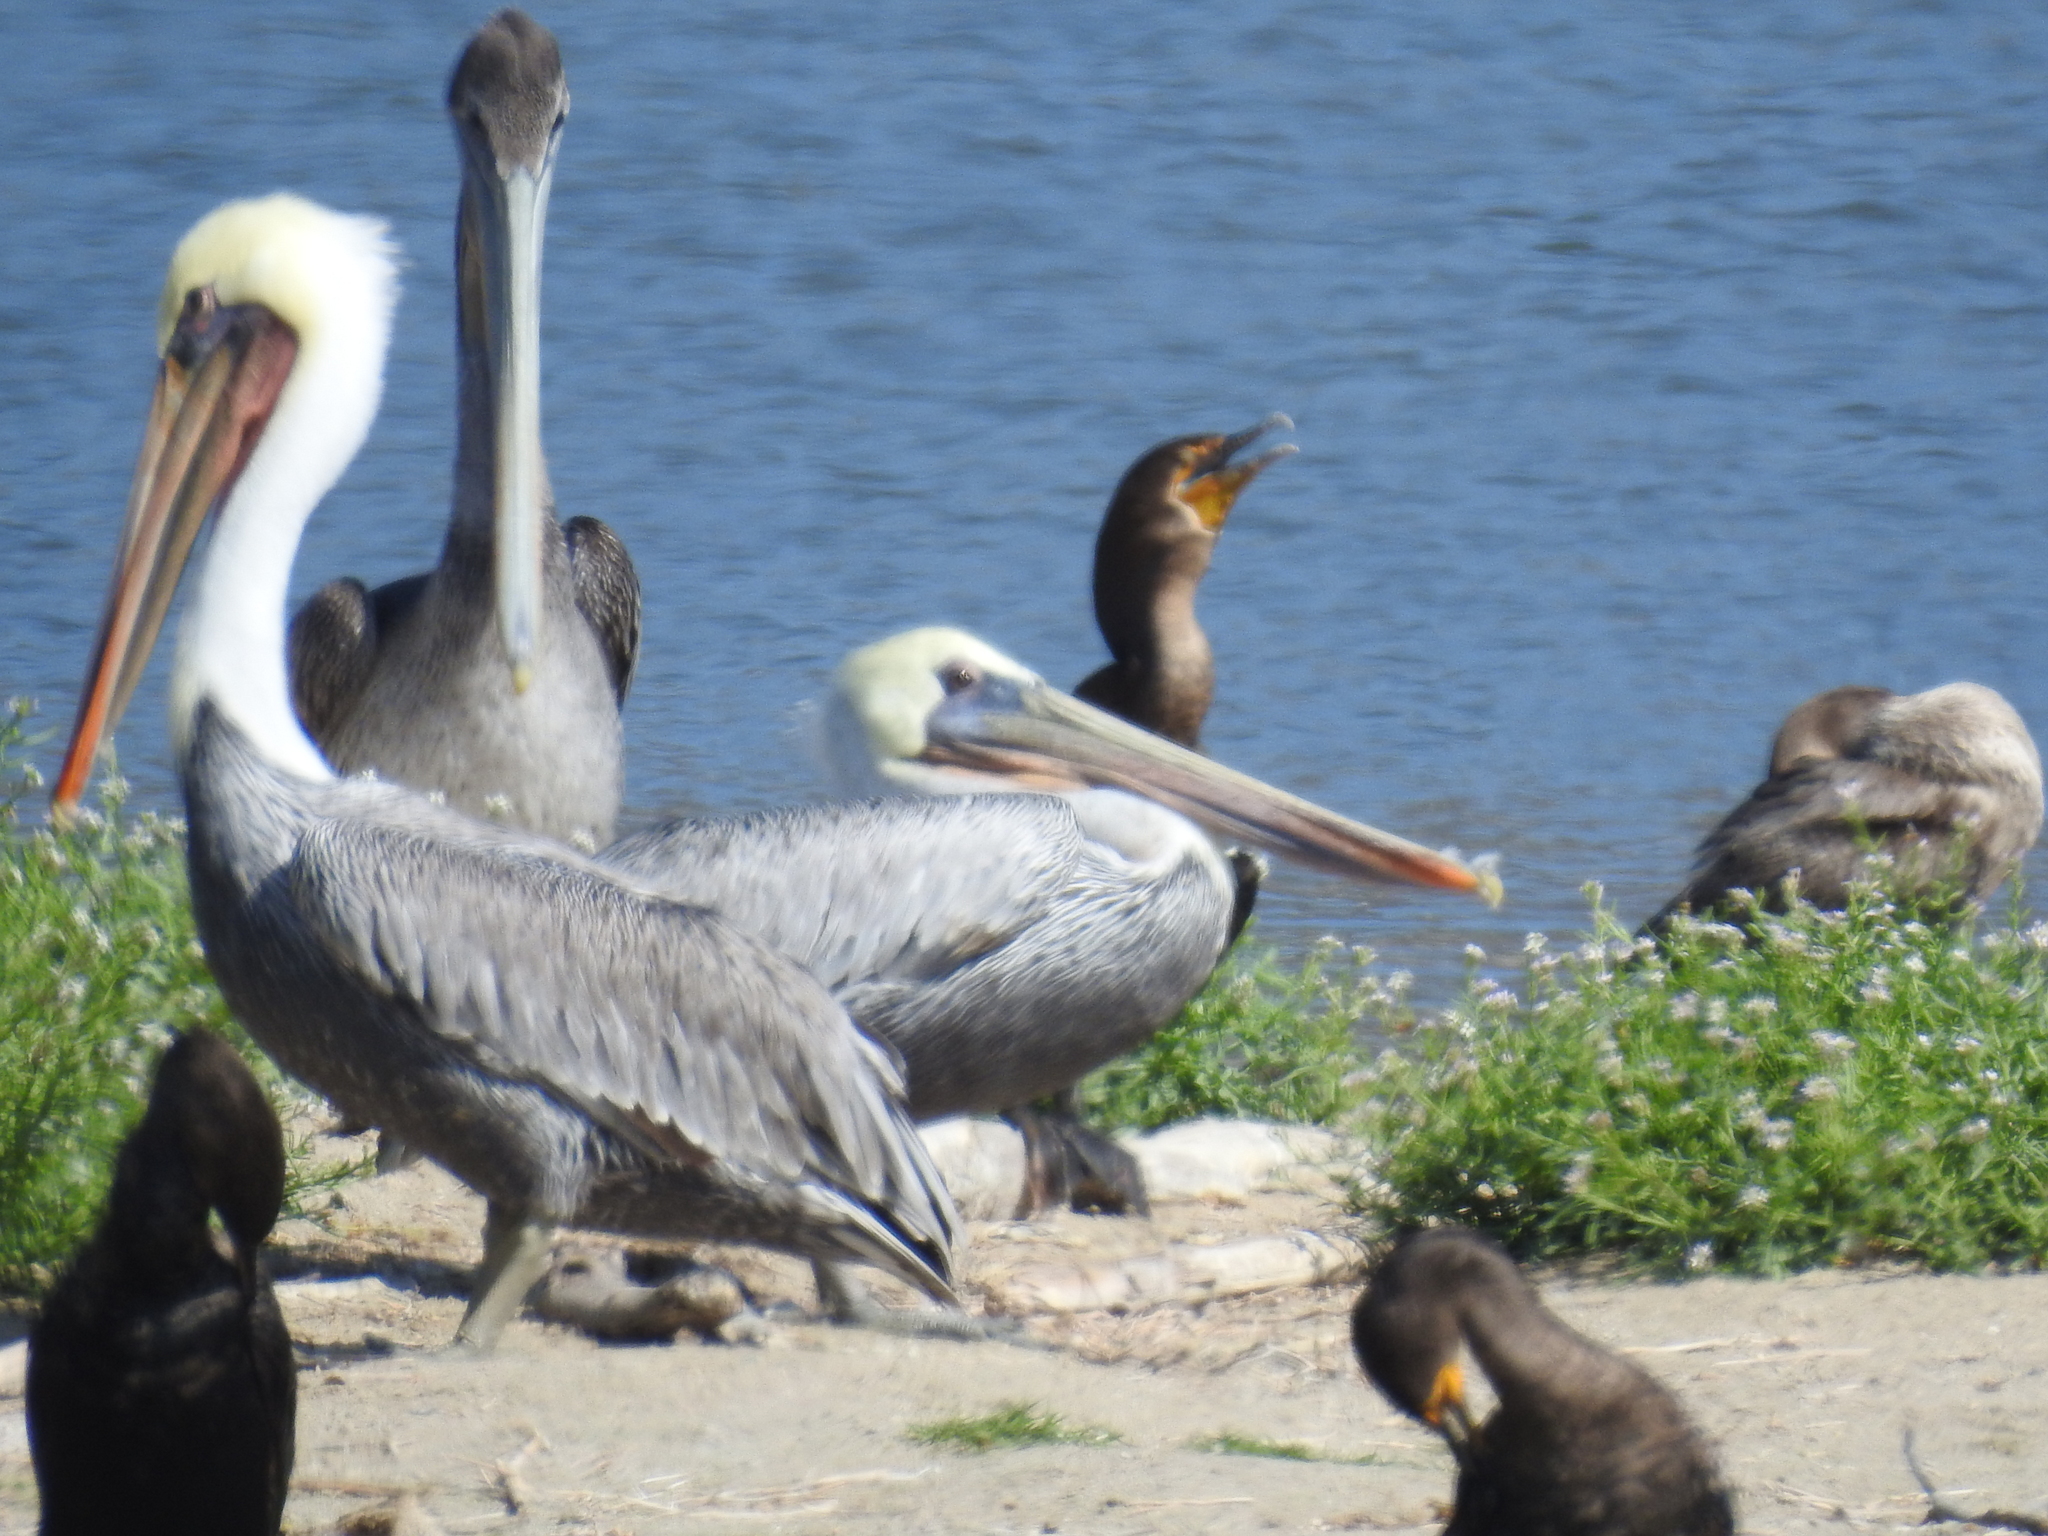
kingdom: Animalia
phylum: Chordata
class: Aves
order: Pelecaniformes
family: Pelecanidae
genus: Pelecanus
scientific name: Pelecanus occidentalis
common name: Brown pelican
